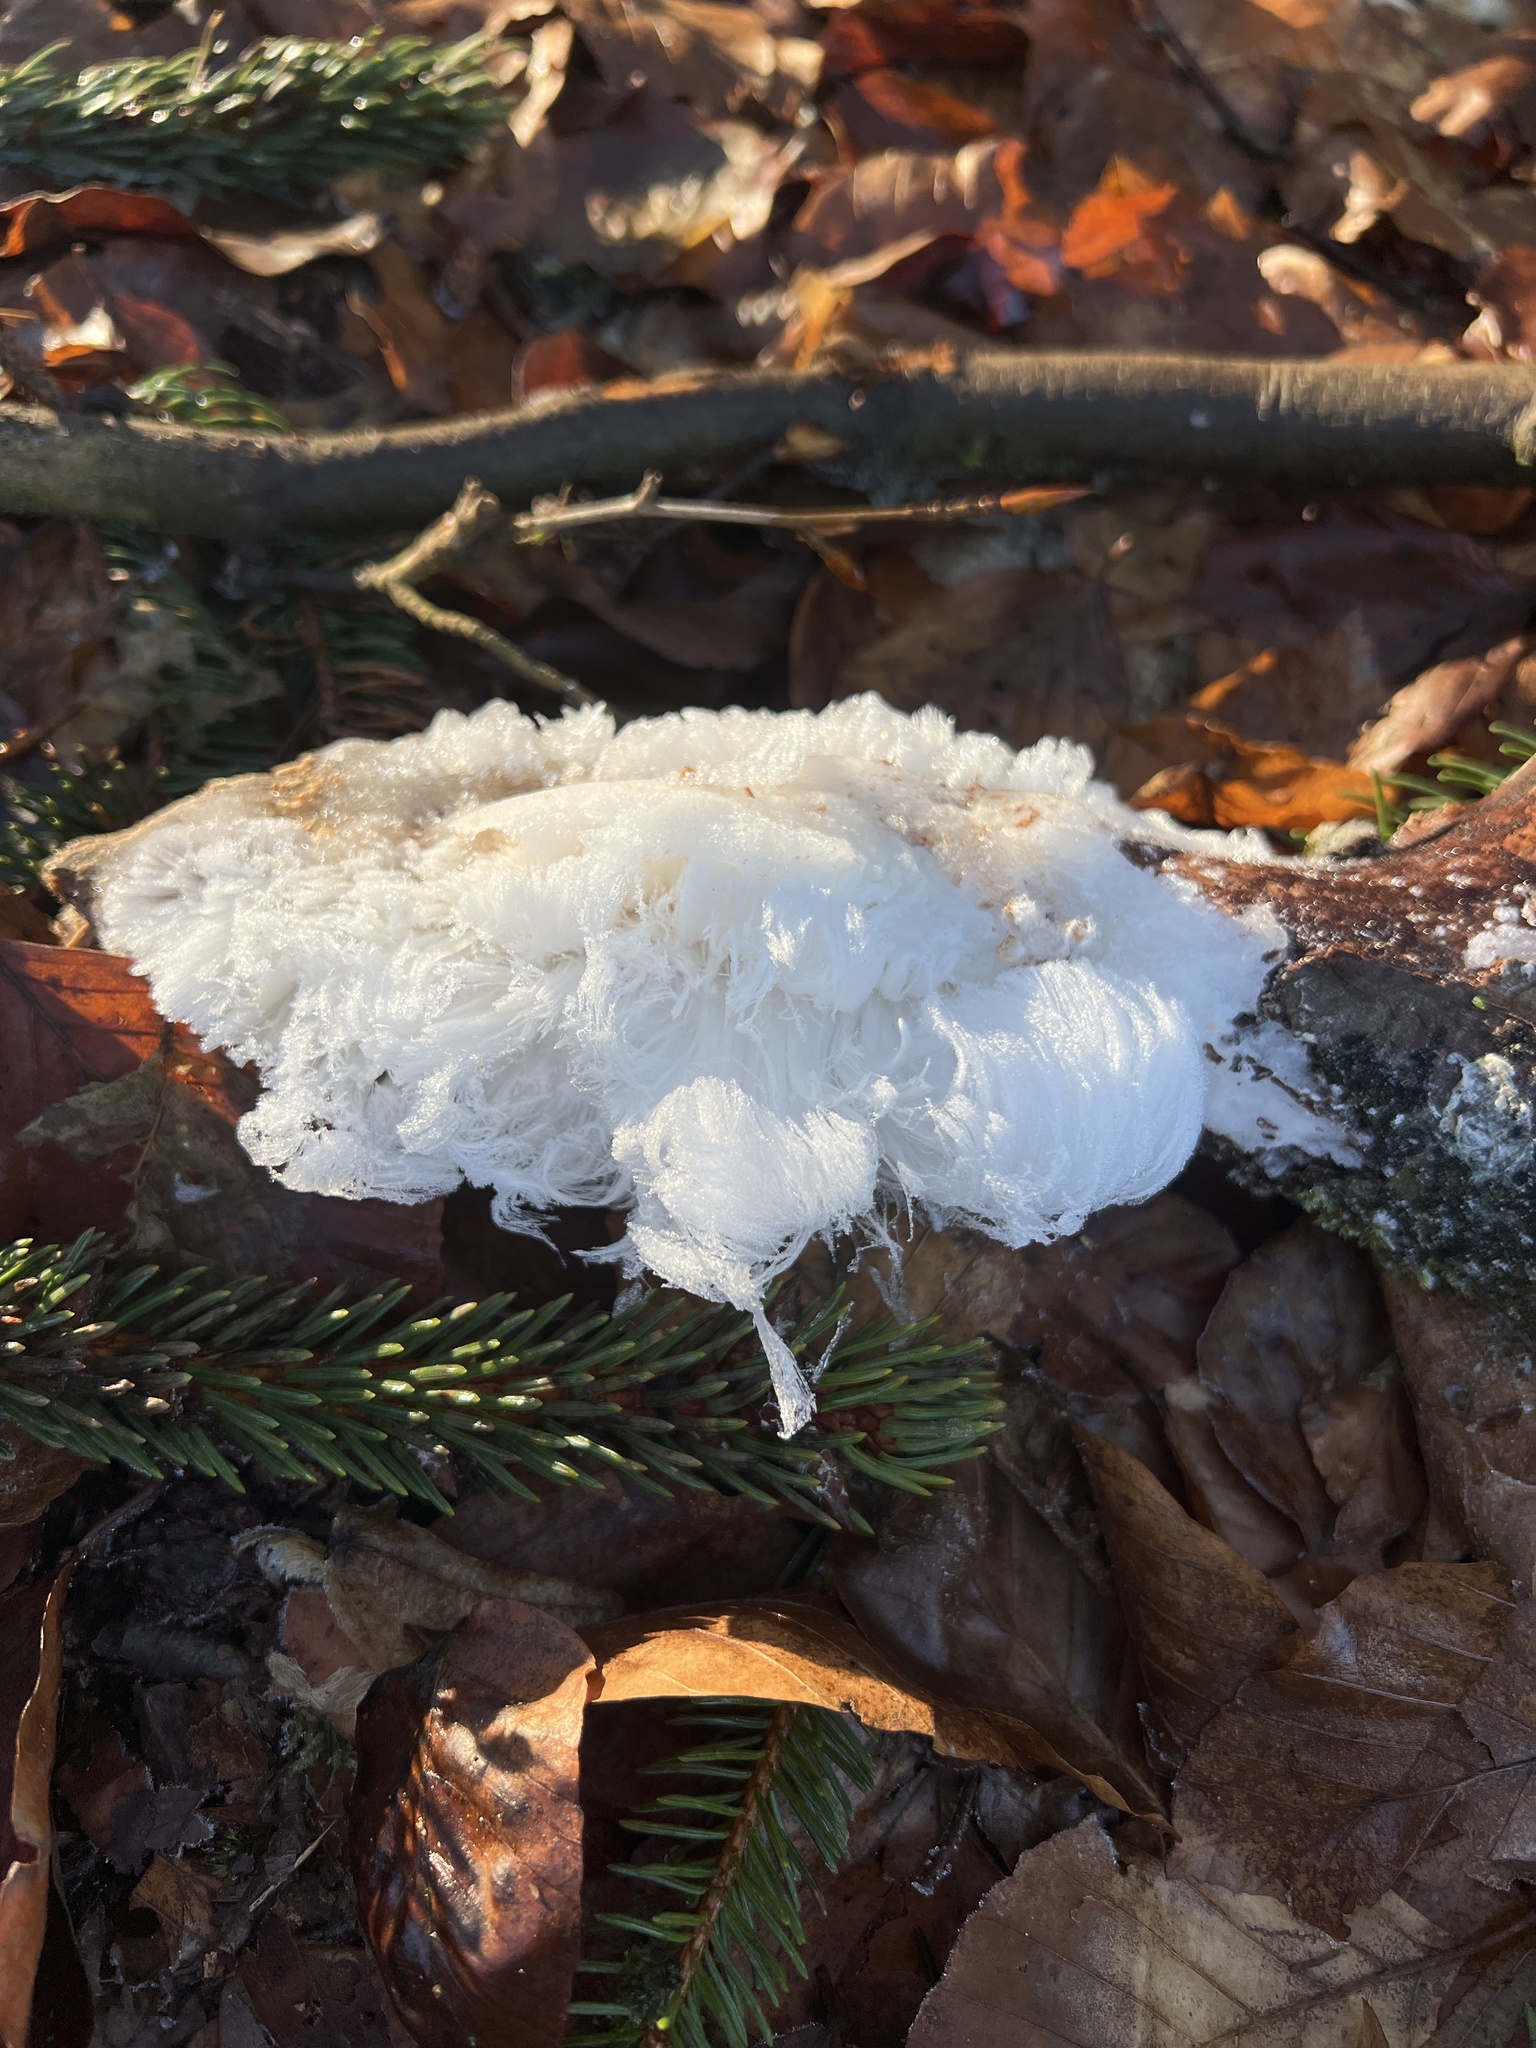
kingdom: Fungi
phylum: Basidiomycota
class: Agaricomycetes
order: Auriculariales
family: Auriculariaceae
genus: Exidiopsis
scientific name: Exidiopsis effusa
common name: Hair ice crust
